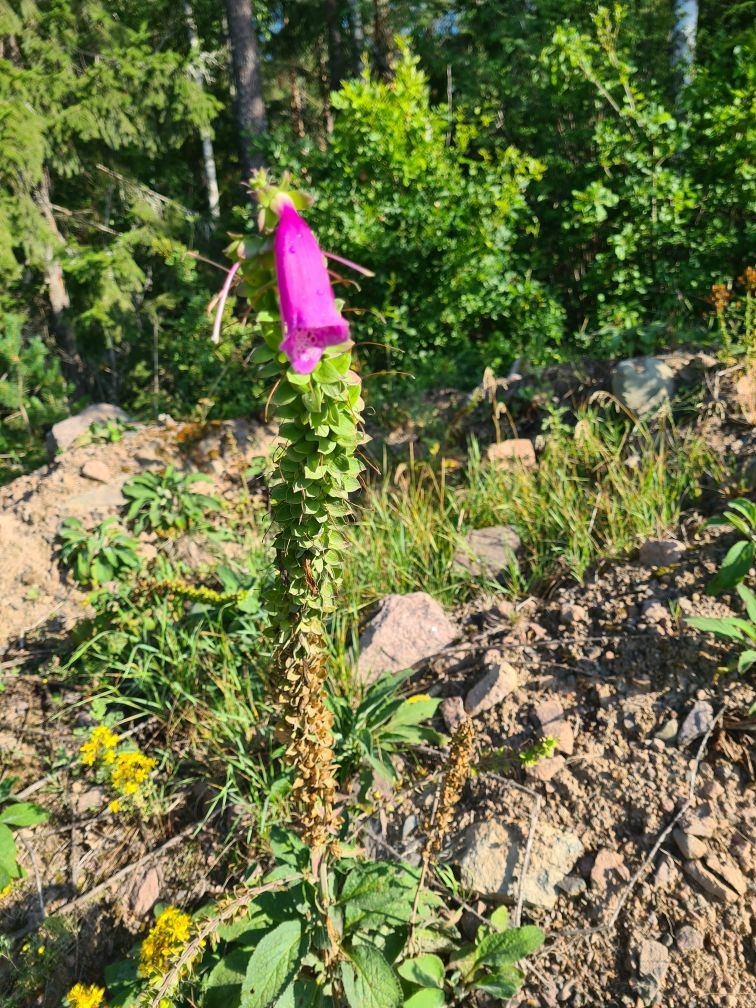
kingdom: Plantae
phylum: Tracheophyta
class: Magnoliopsida
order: Lamiales
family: Plantaginaceae
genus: Digitalis
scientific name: Digitalis purpurea
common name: Foxglove
